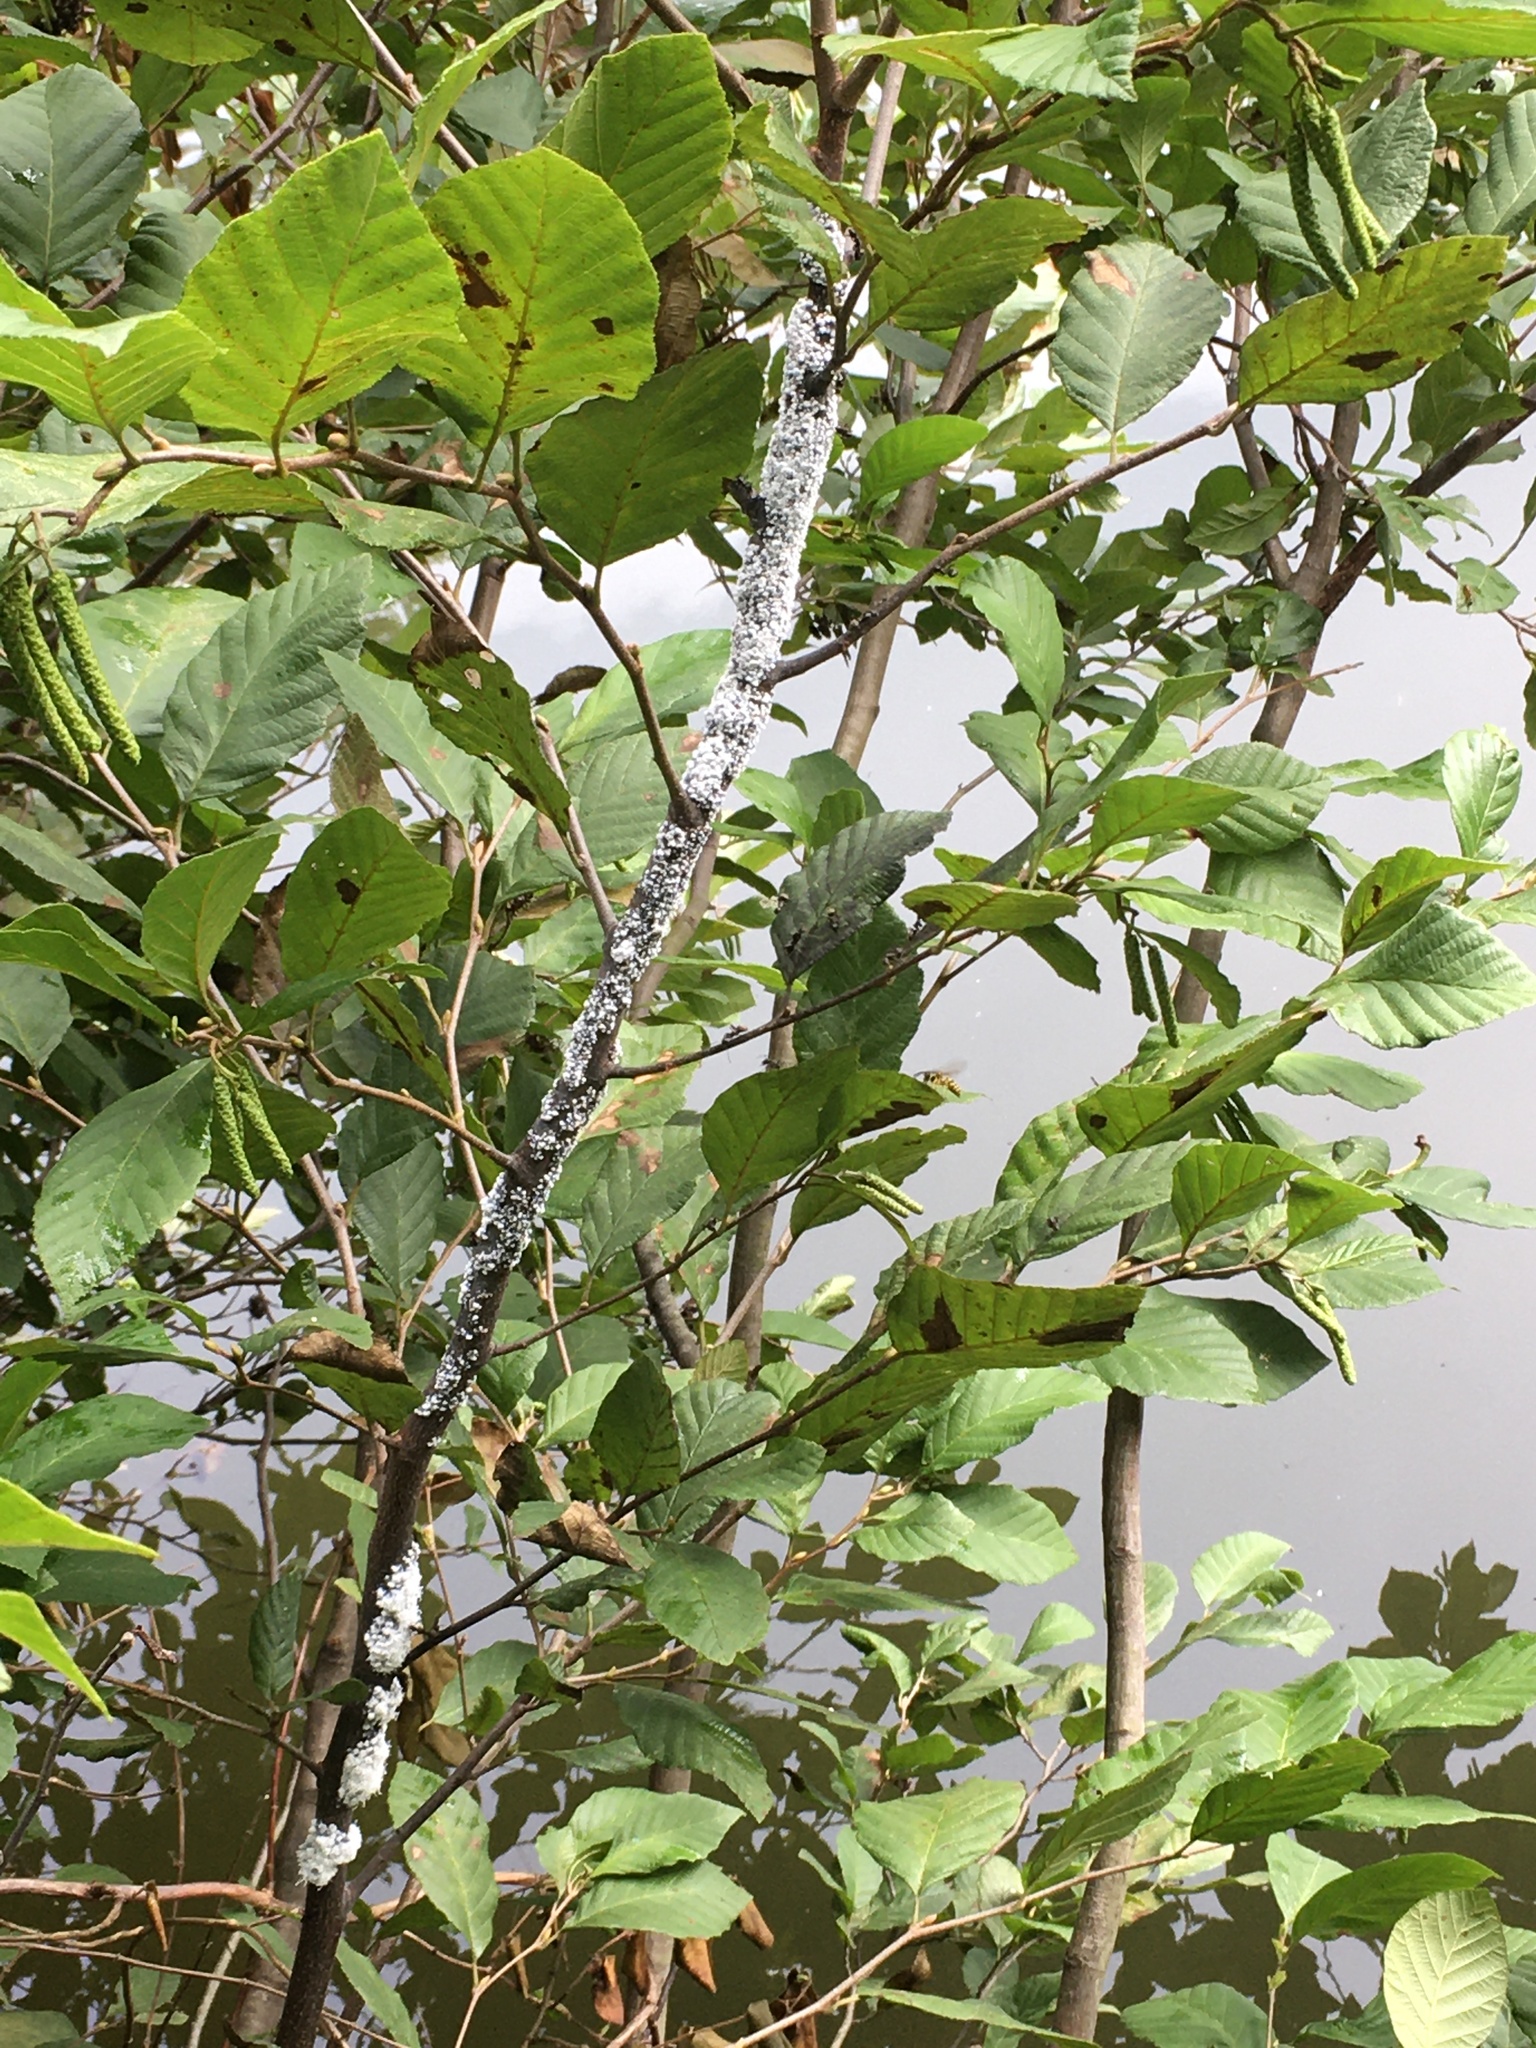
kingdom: Animalia
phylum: Arthropoda
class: Insecta
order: Hemiptera
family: Aphididae
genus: Prociphilus
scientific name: Prociphilus tessellatus
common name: Woolly alder aphid
